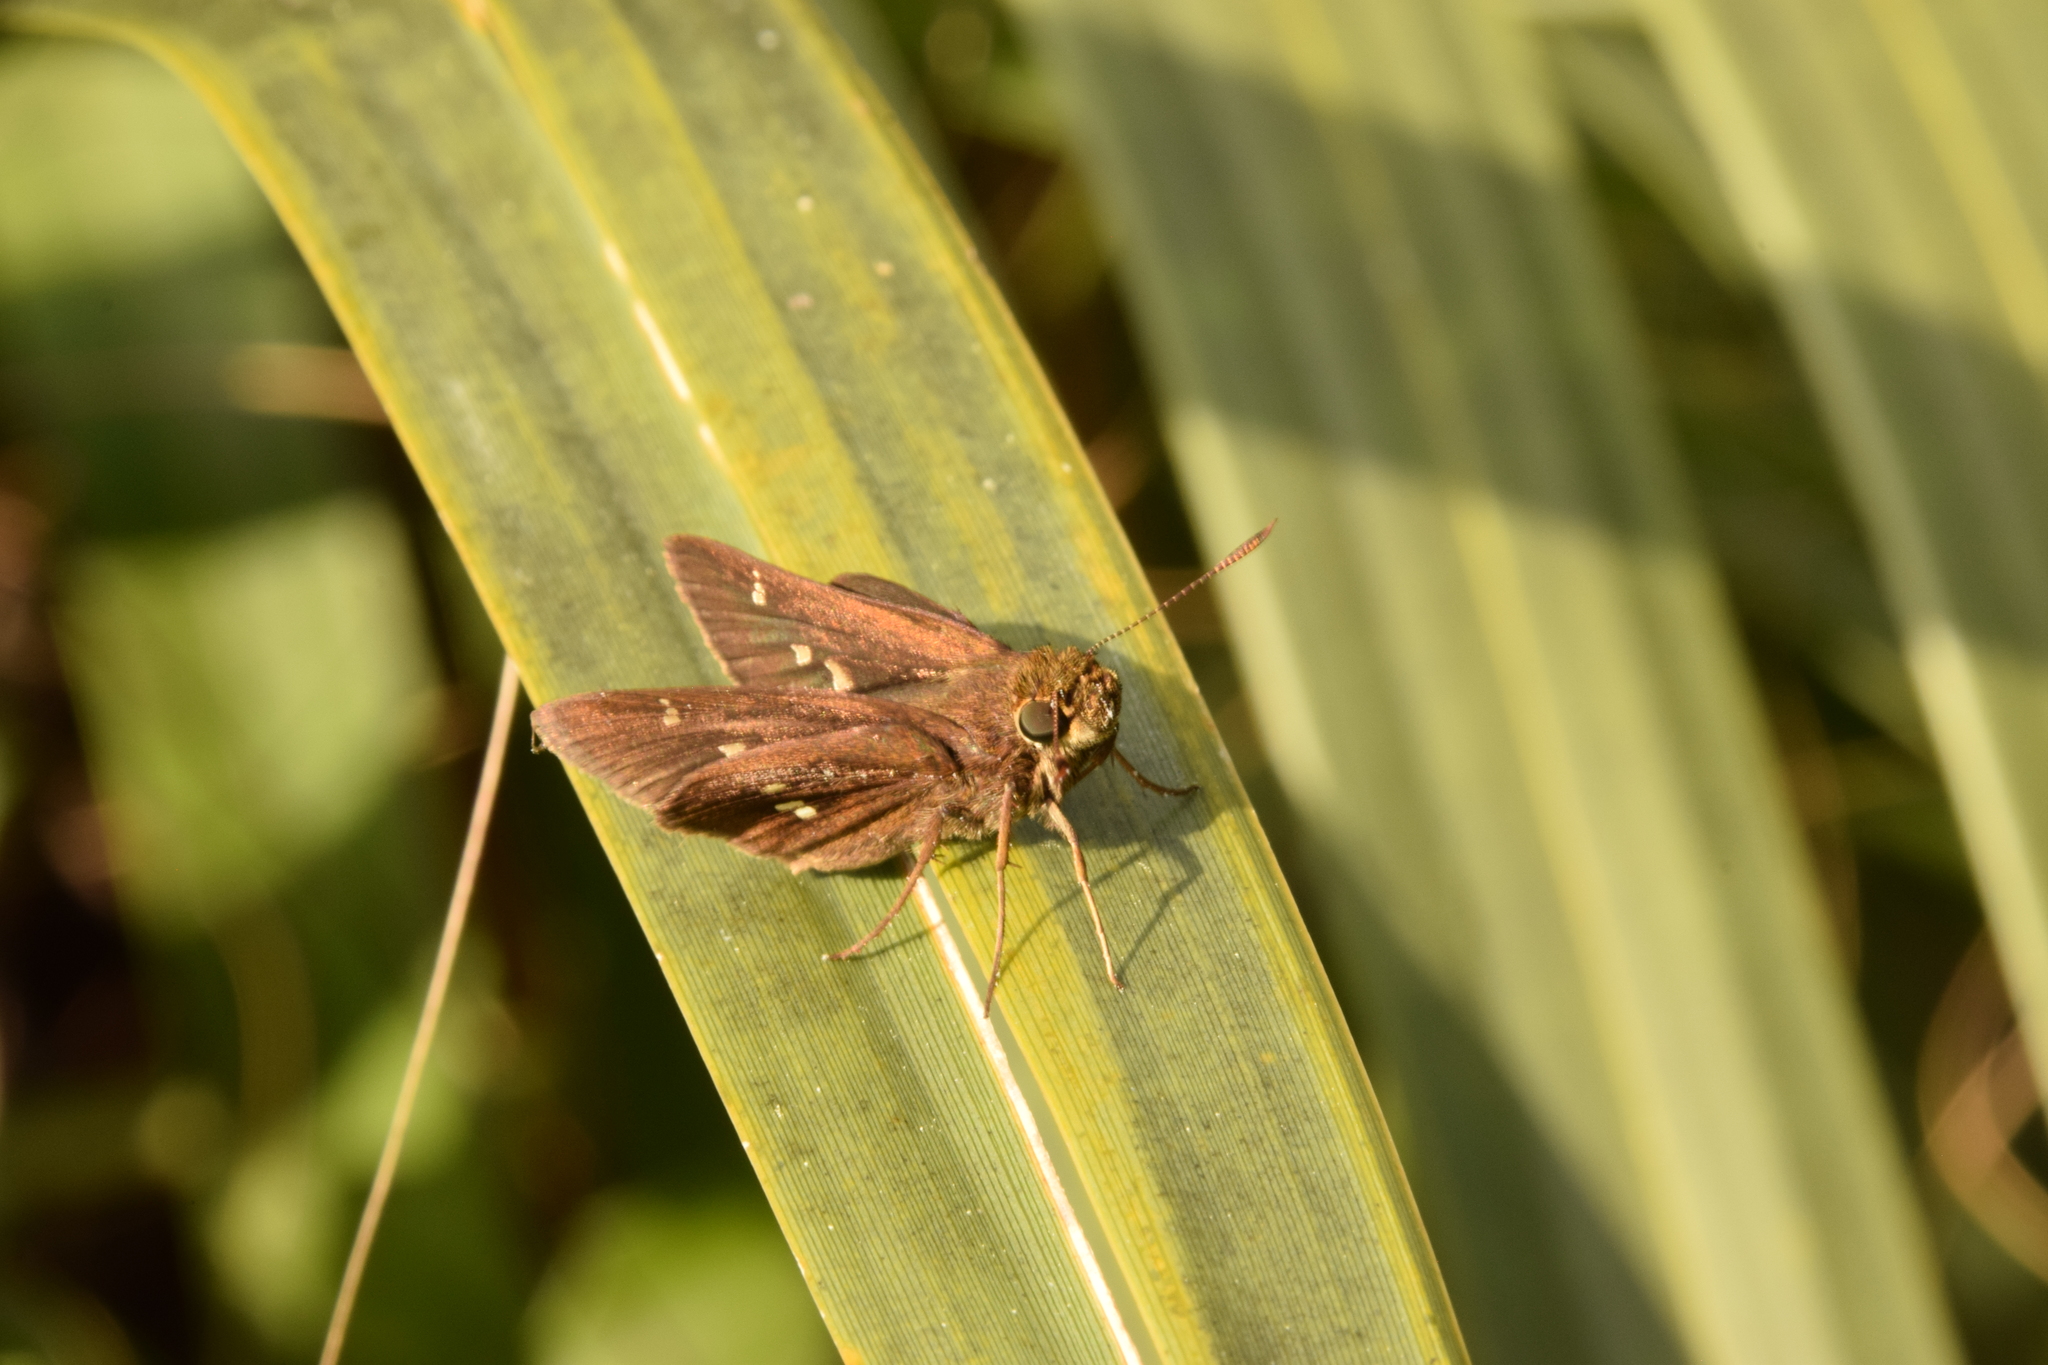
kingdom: Animalia
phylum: Arthropoda
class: Insecta
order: Lepidoptera
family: Hesperiidae
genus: Oligoria
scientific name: Oligoria maculata
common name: Twin-spot skipper
